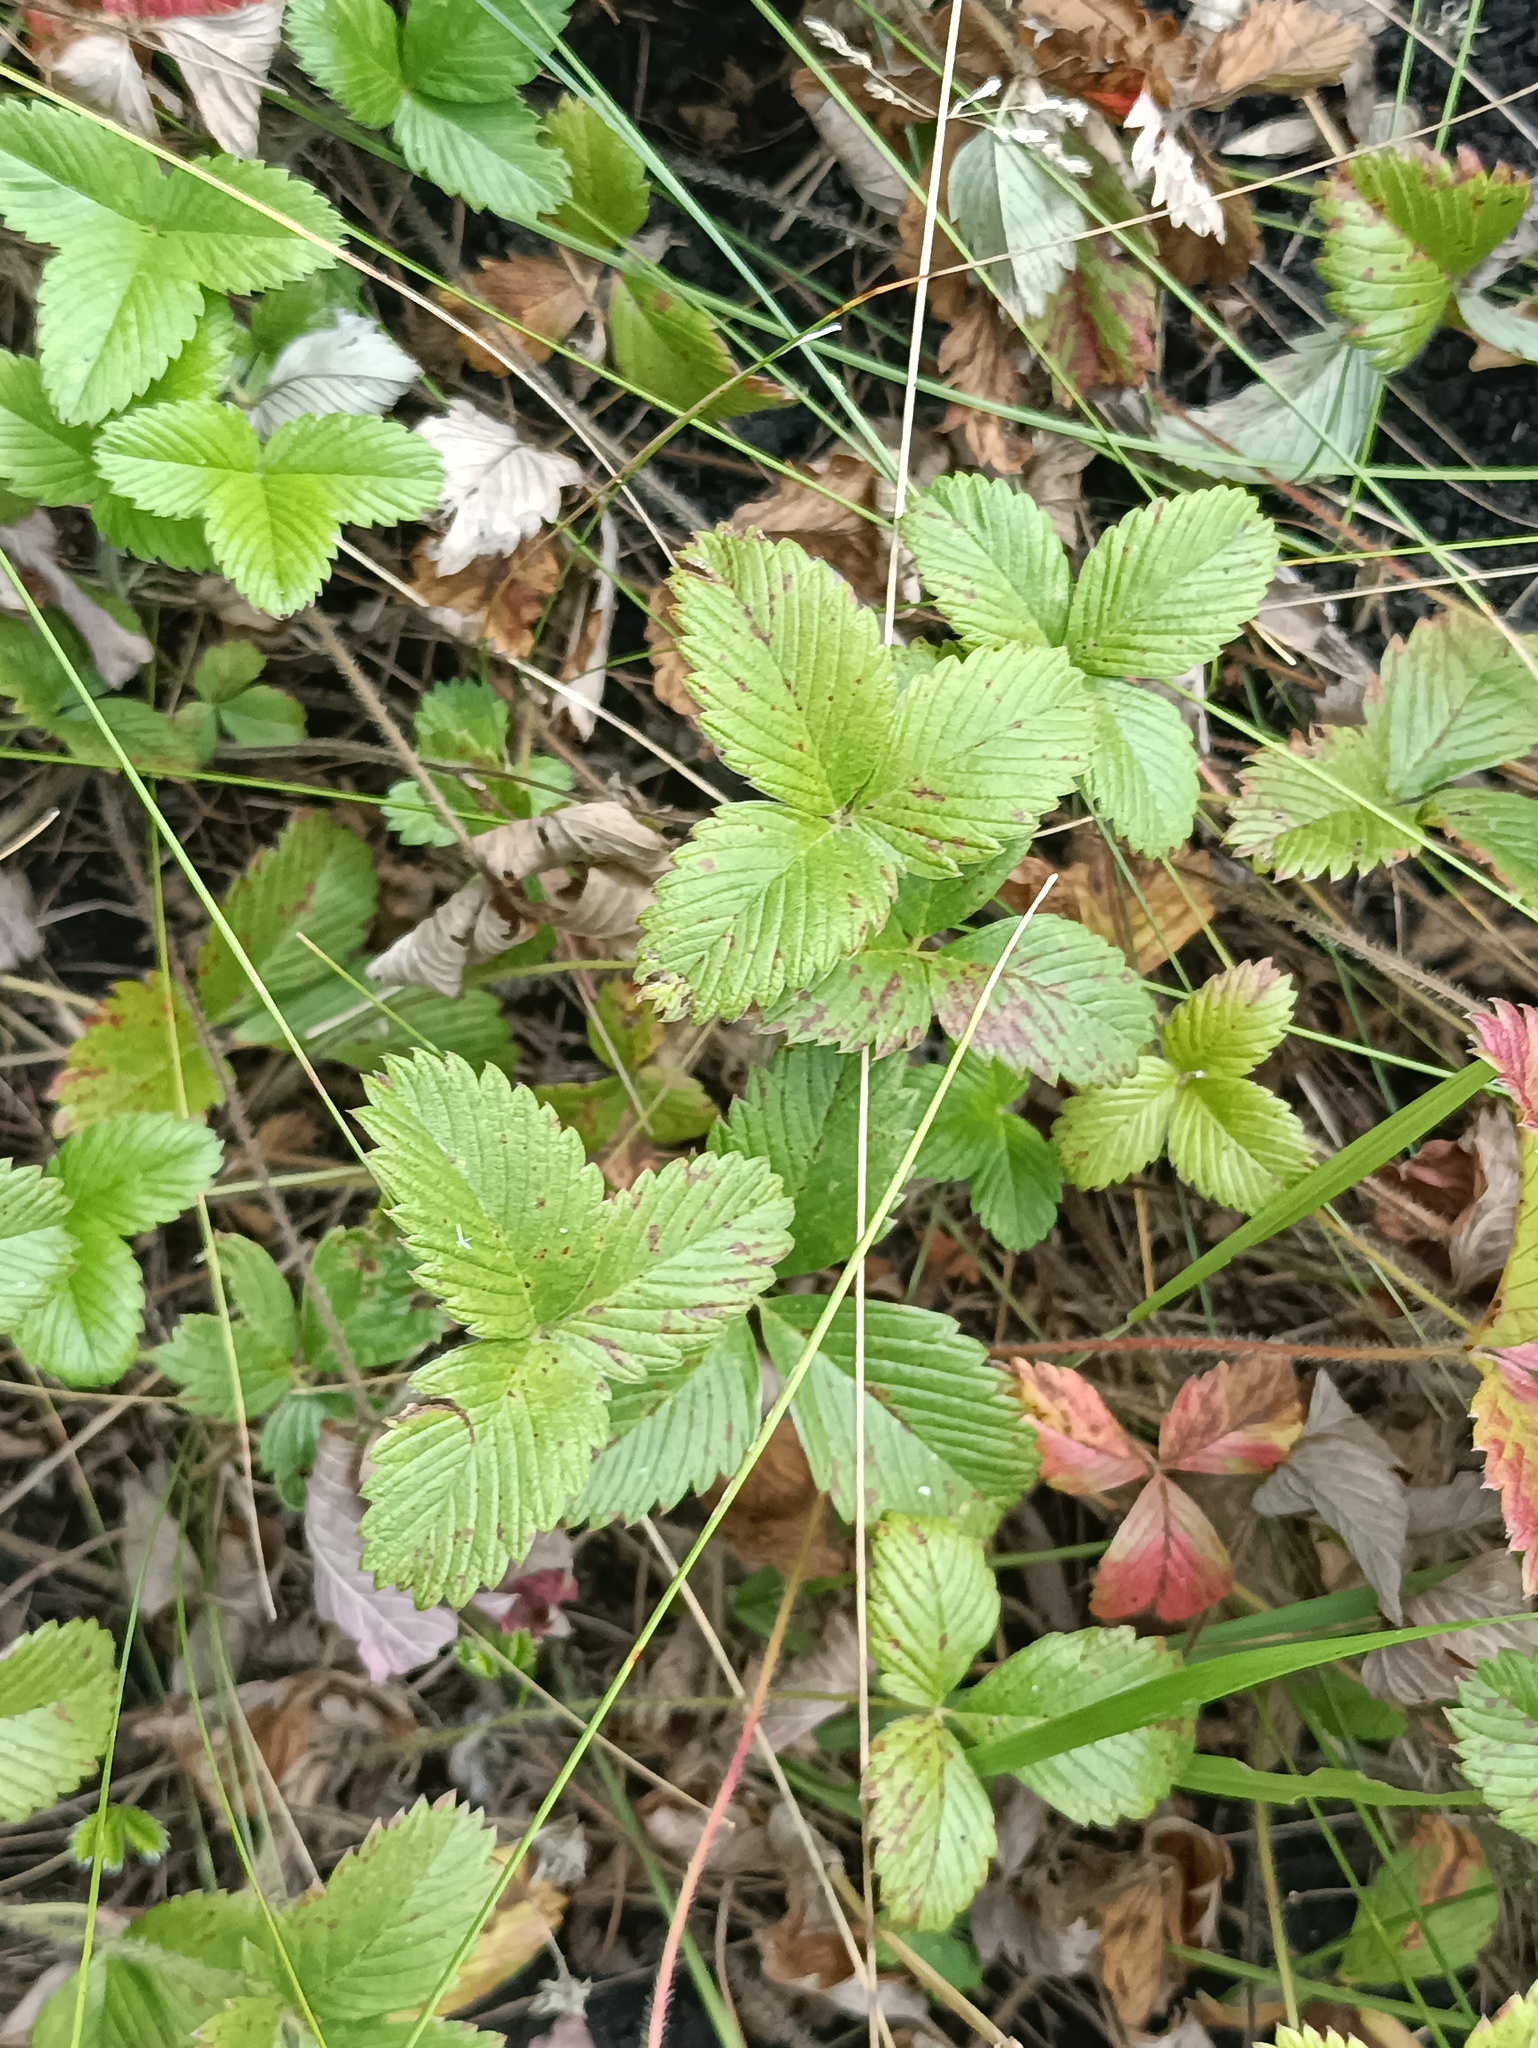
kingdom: Plantae
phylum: Tracheophyta
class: Magnoliopsida
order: Rosales
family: Rosaceae
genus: Fragaria
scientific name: Fragaria viridis
